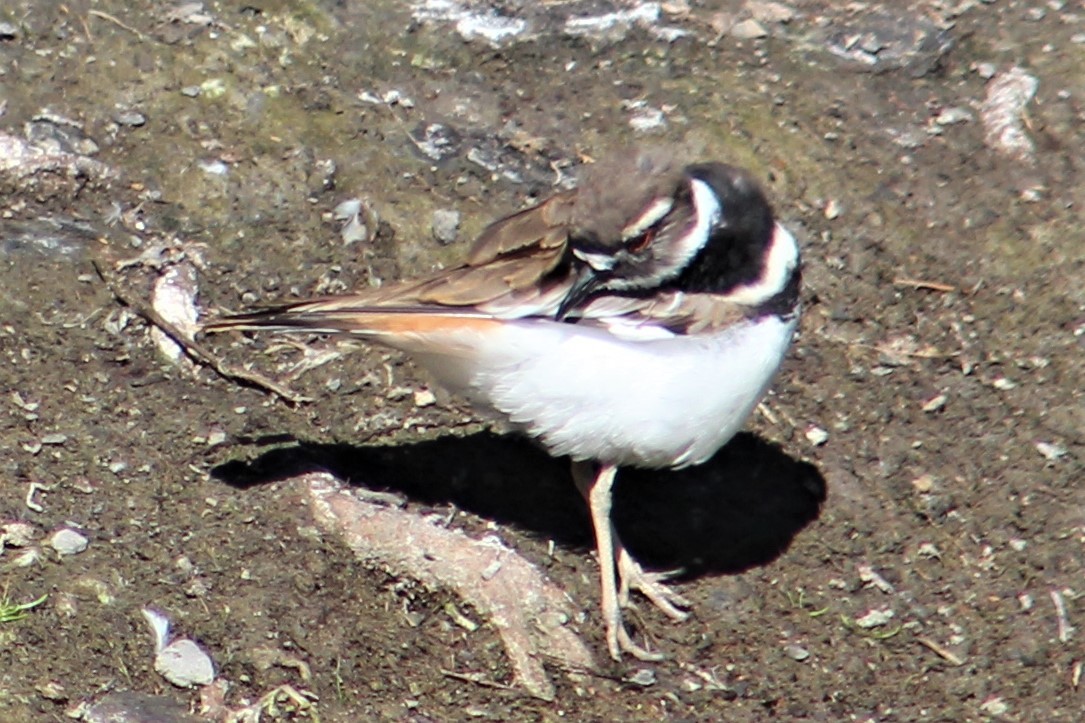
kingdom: Animalia
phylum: Chordata
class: Aves
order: Charadriiformes
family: Charadriidae
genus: Charadrius
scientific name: Charadrius vociferus
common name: Killdeer
